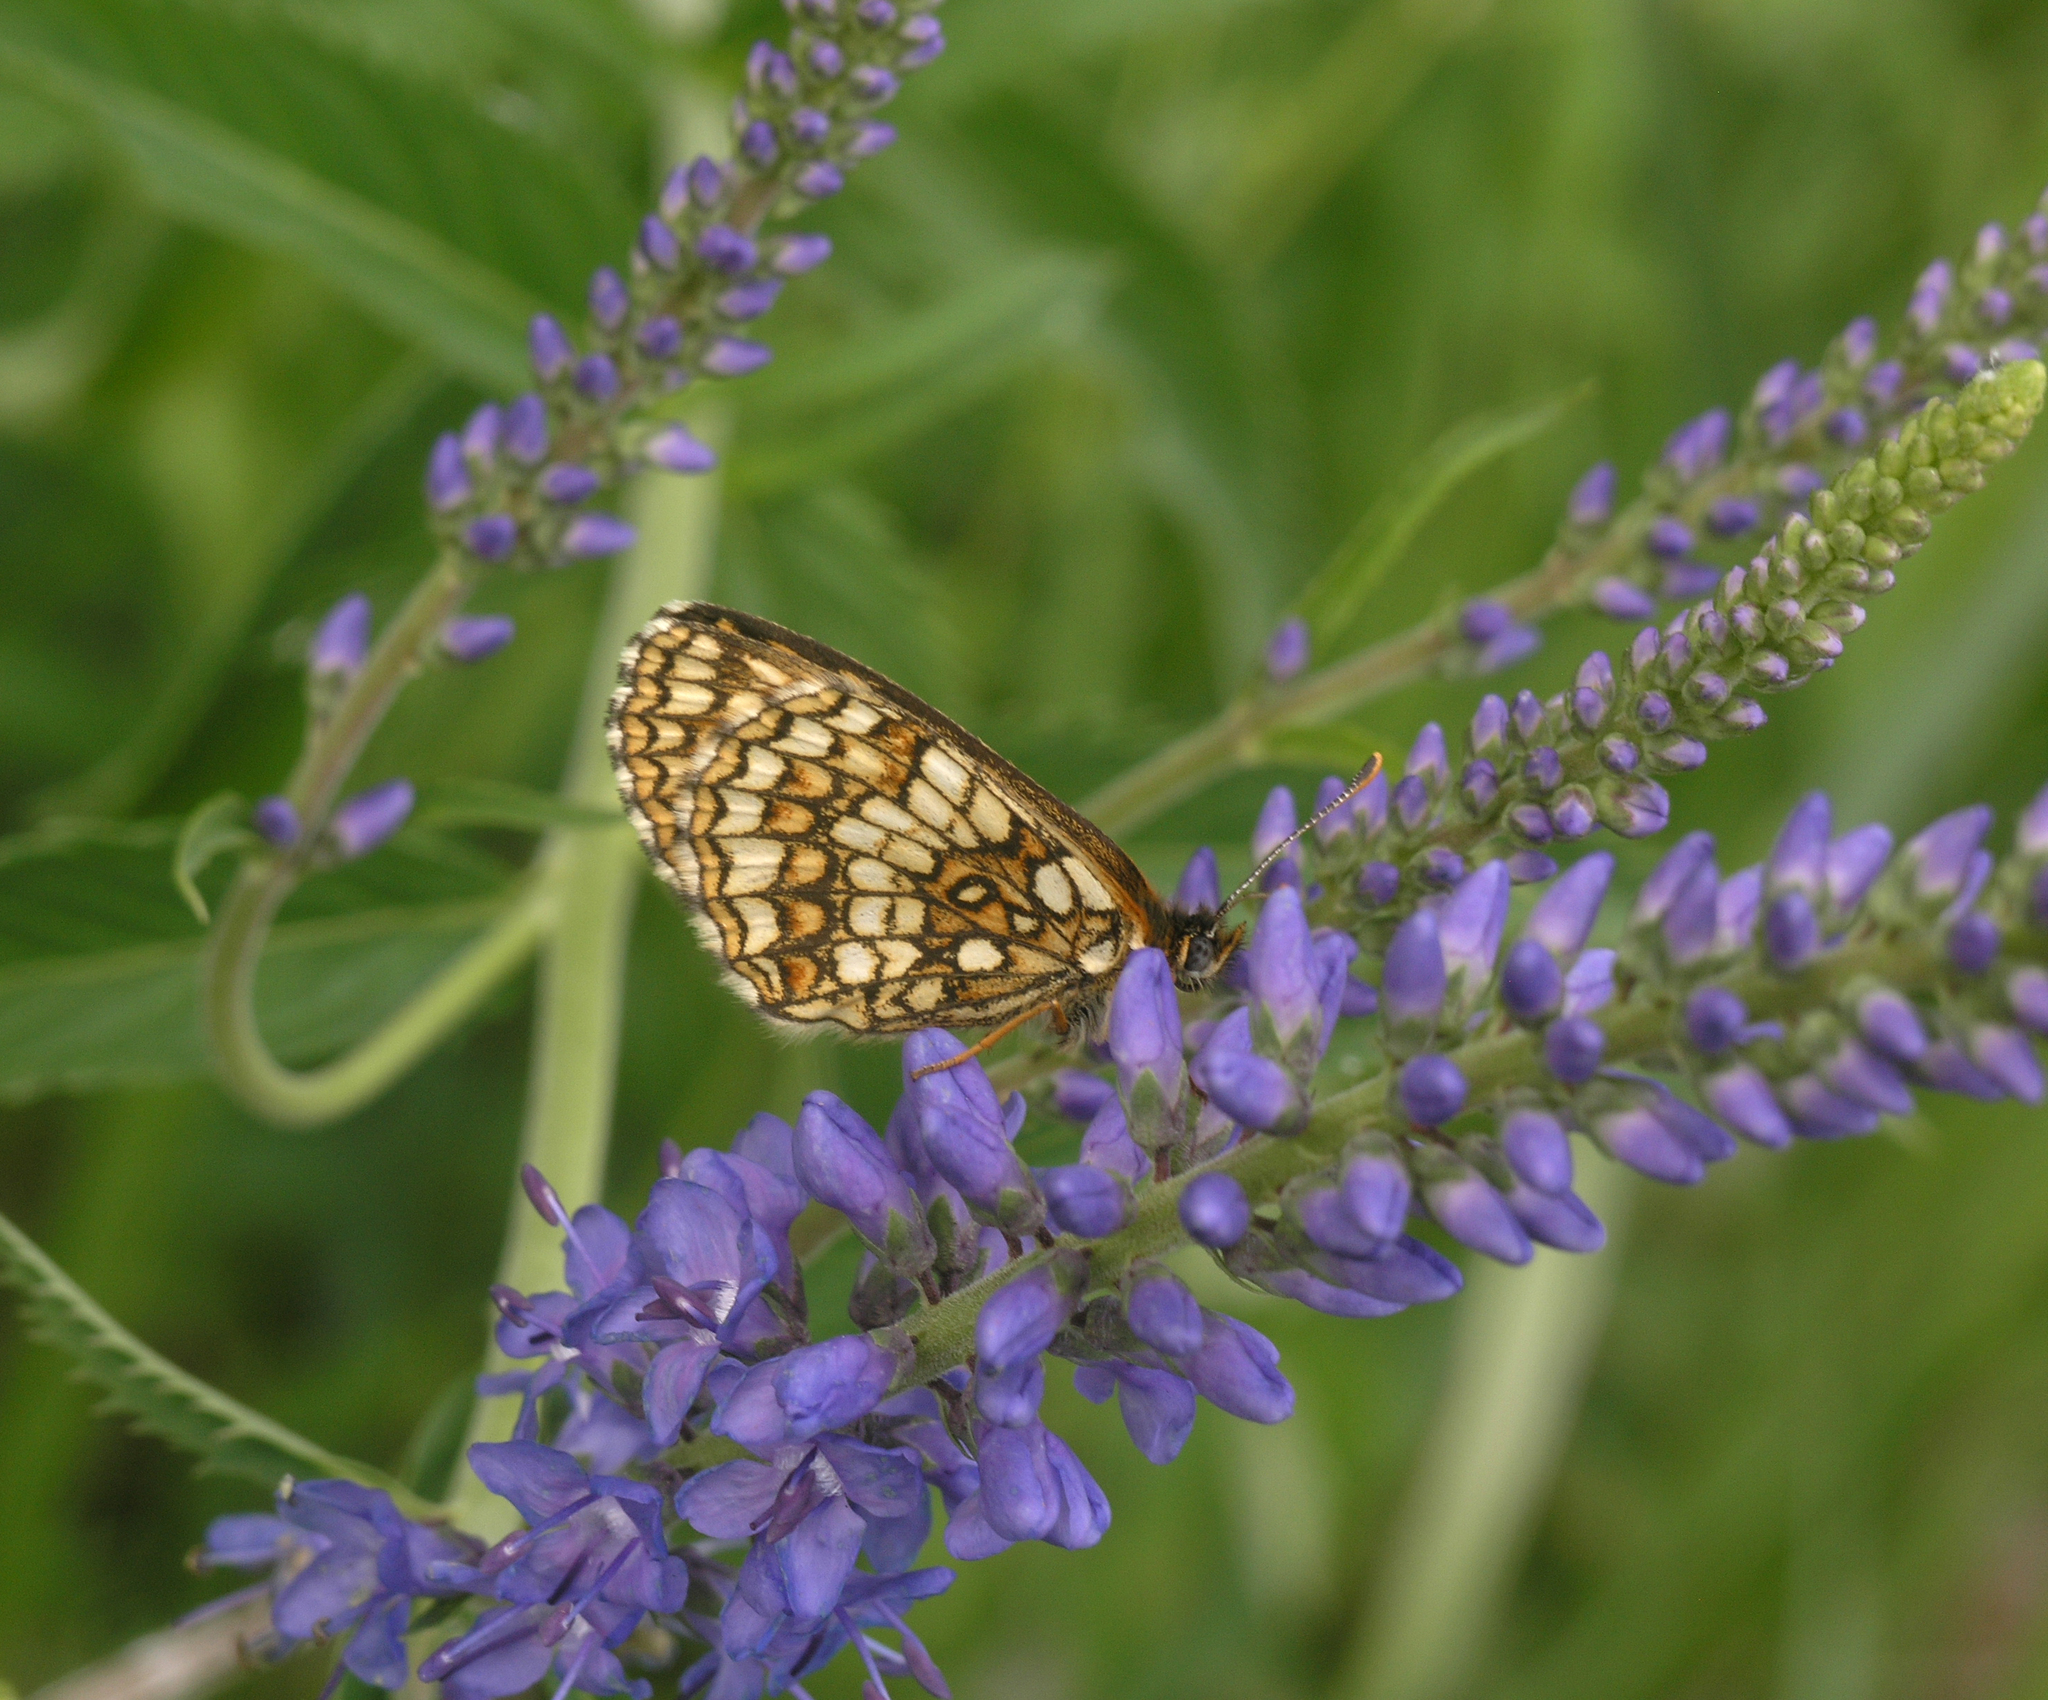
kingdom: Animalia
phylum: Arthropoda
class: Insecta
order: Lepidoptera
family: Nymphalidae
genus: Mellicta
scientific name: Mellicta menetriesi
